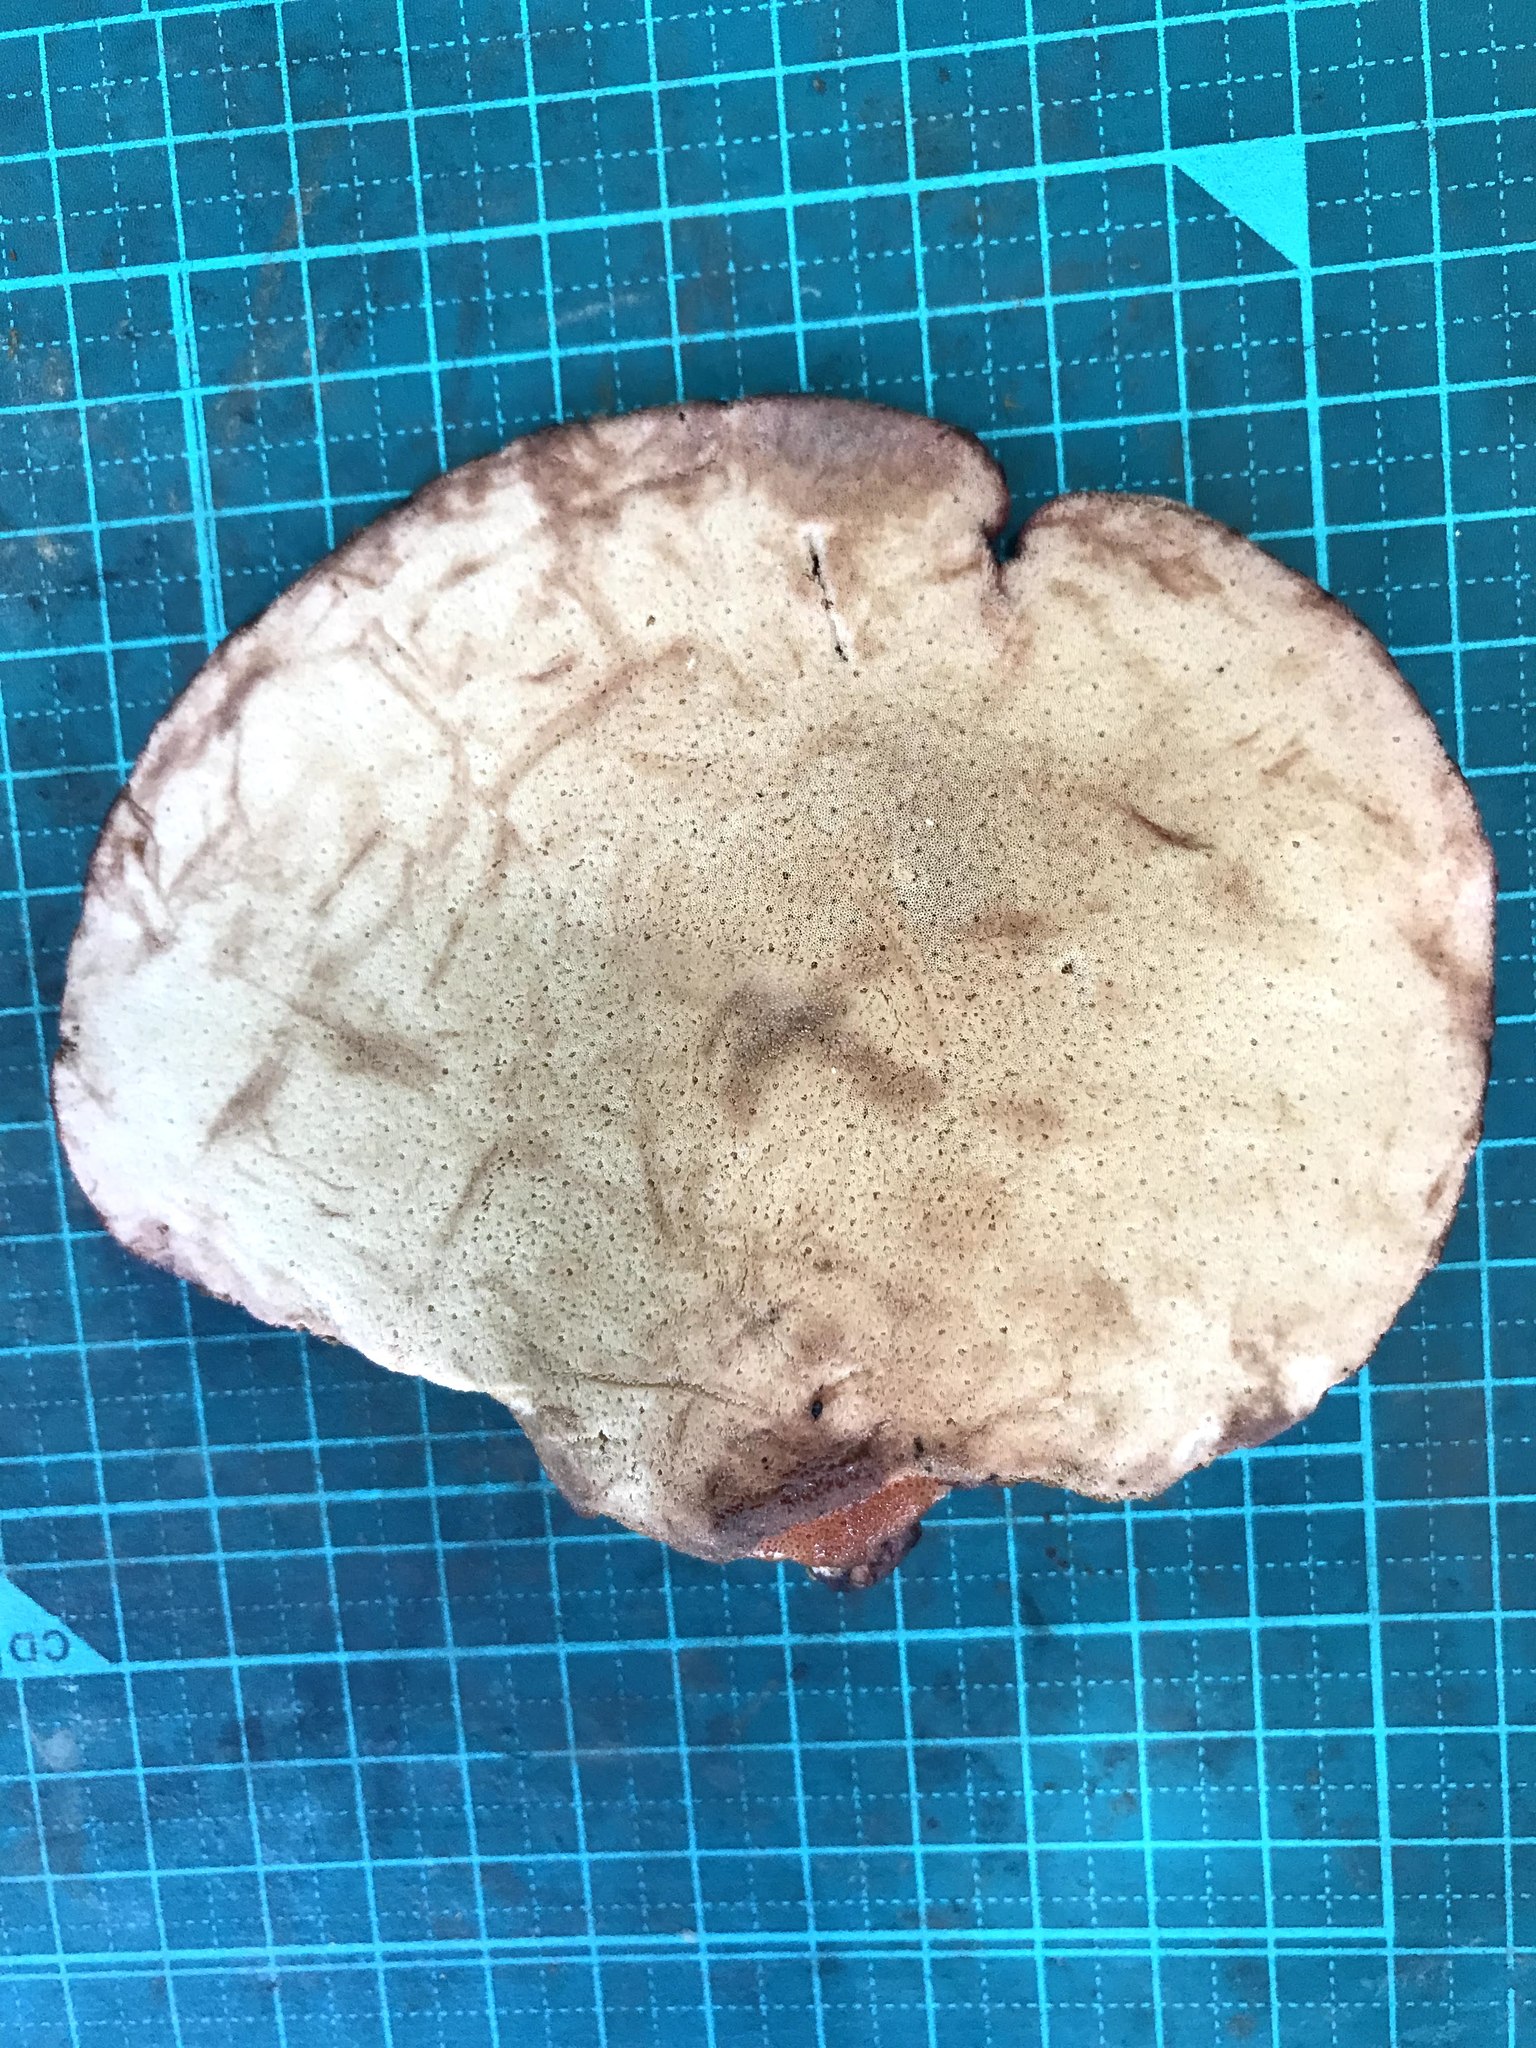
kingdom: Fungi
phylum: Basidiomycota
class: Agaricomycetes
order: Agaricales
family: Fistulinaceae
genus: Fistulina
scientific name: Fistulina hepatica
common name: Beef-steak fungus
